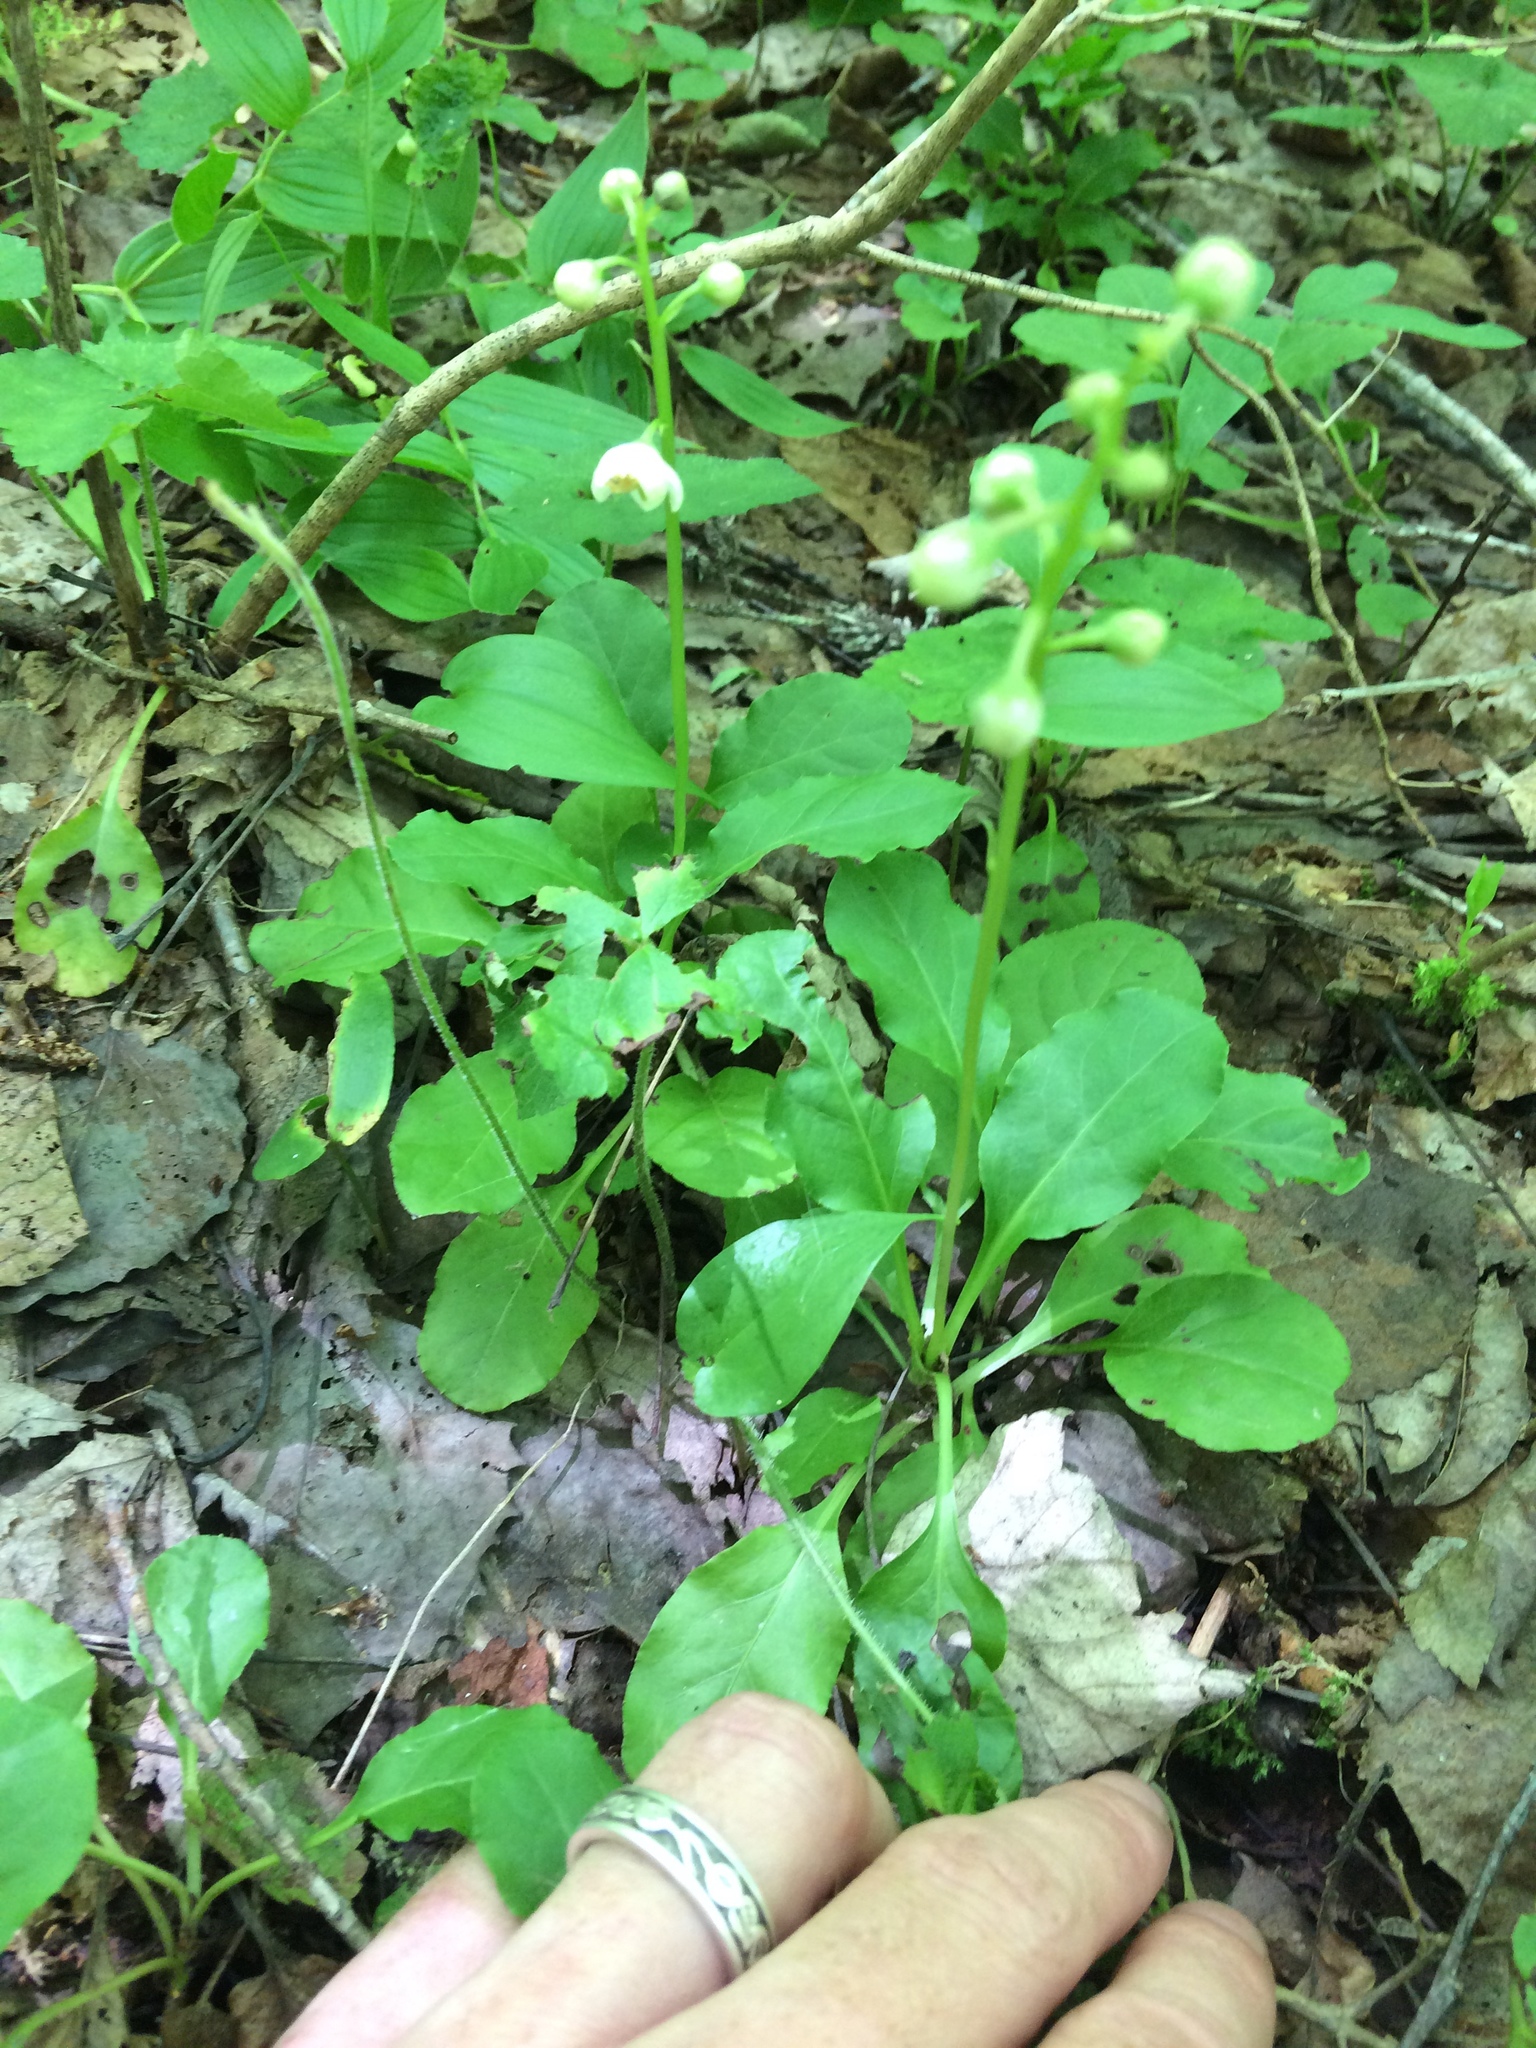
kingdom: Plantae
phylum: Tracheophyta
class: Magnoliopsida
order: Ericales
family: Ericaceae
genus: Pyrola
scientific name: Pyrola elliptica
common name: Shinleaf
